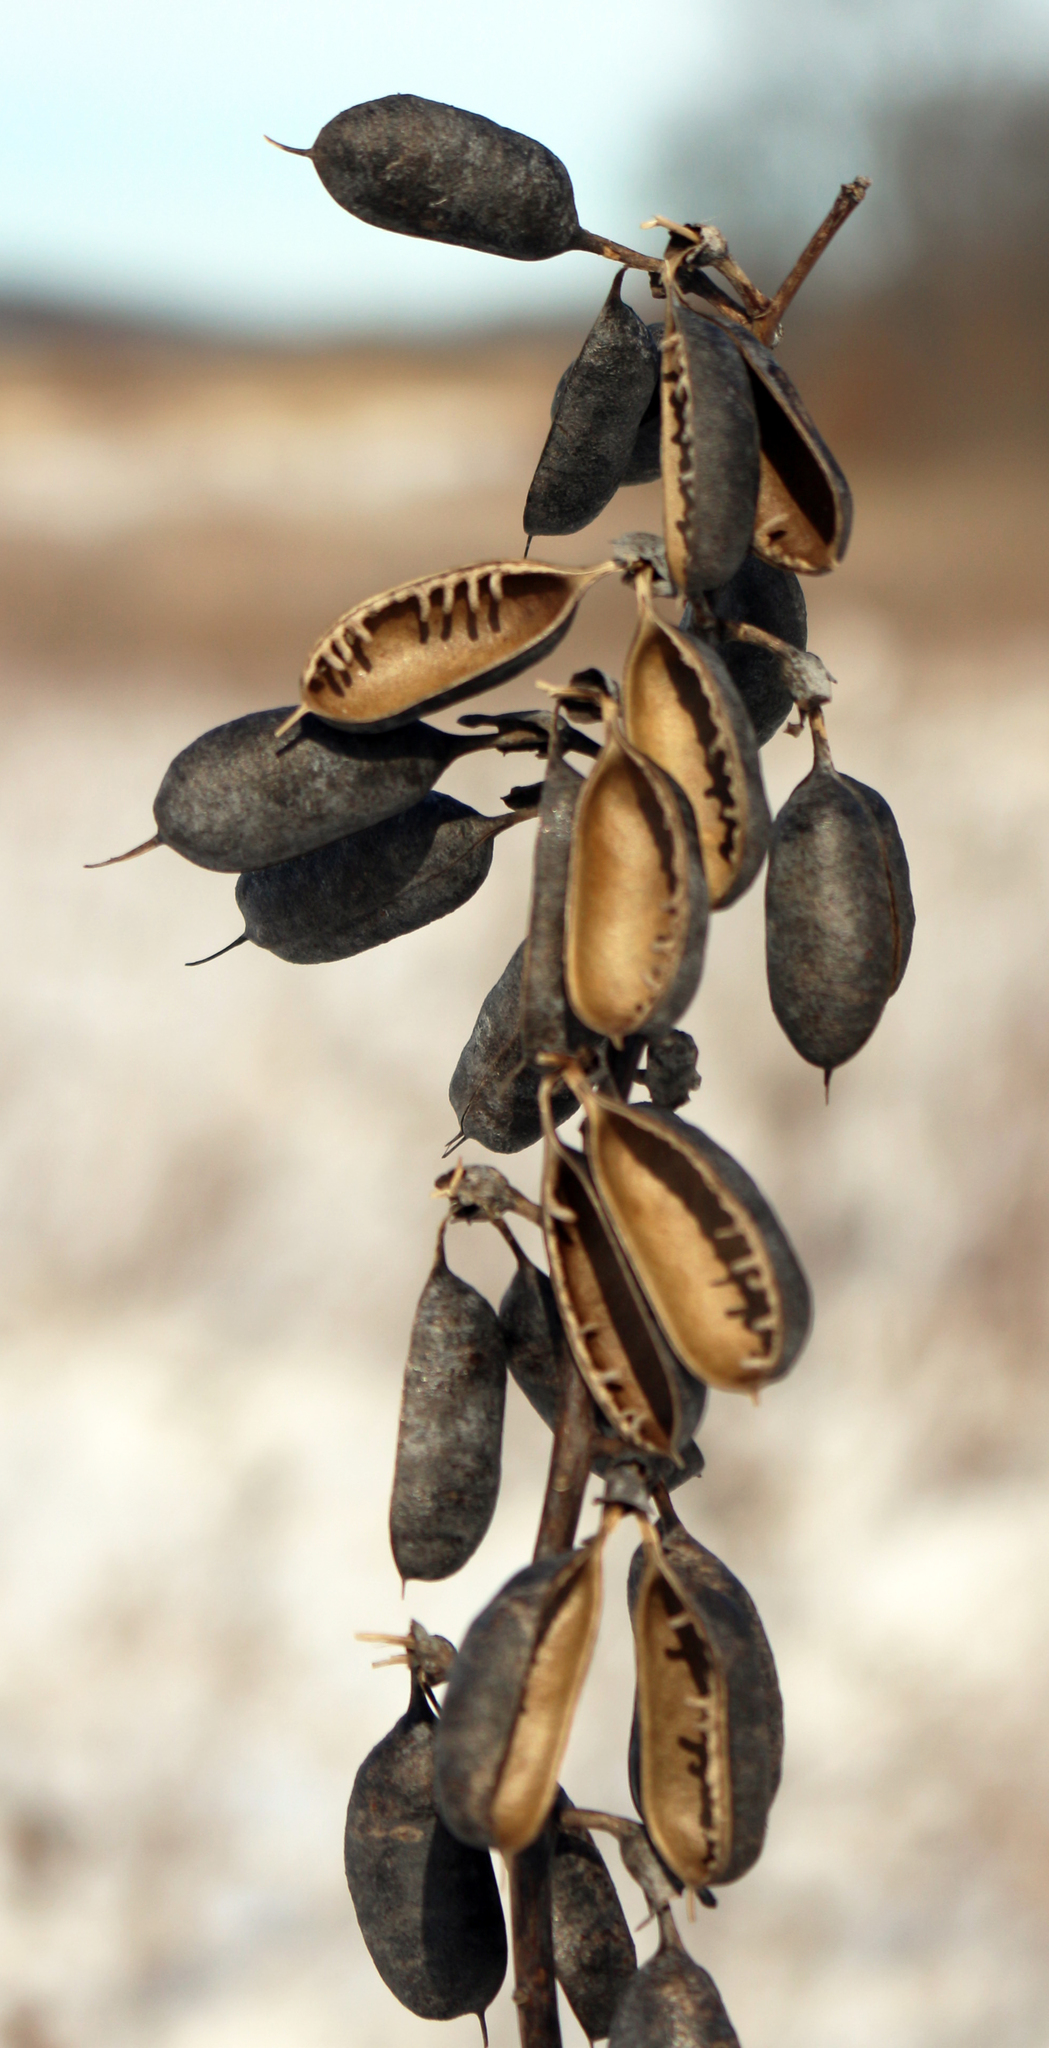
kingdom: Plantae
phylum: Tracheophyta
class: Magnoliopsida
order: Fabales
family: Fabaceae
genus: Baptisia
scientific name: Baptisia alba
